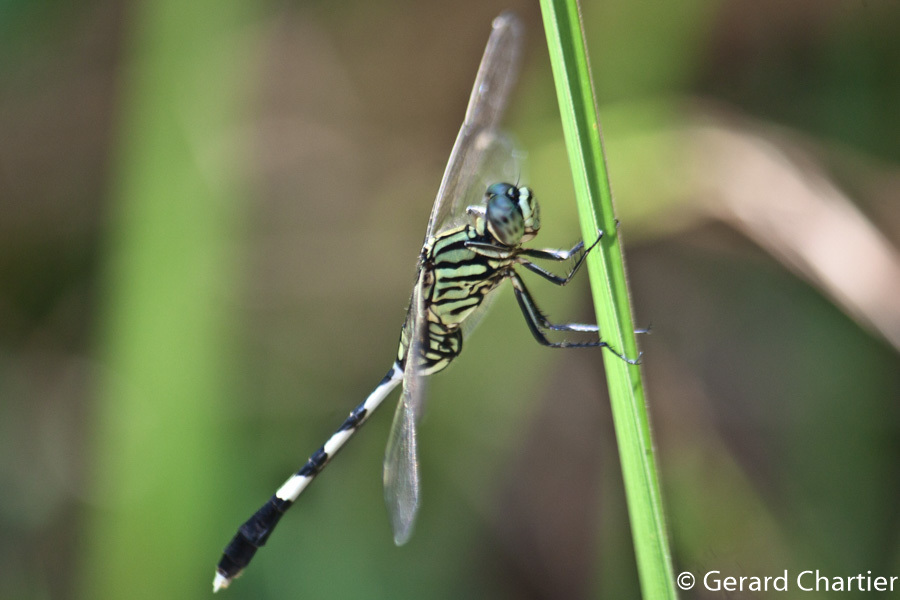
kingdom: Animalia
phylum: Arthropoda
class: Insecta
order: Odonata
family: Libellulidae
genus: Orthetrum
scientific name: Orthetrum sabina
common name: Slender skimmer
